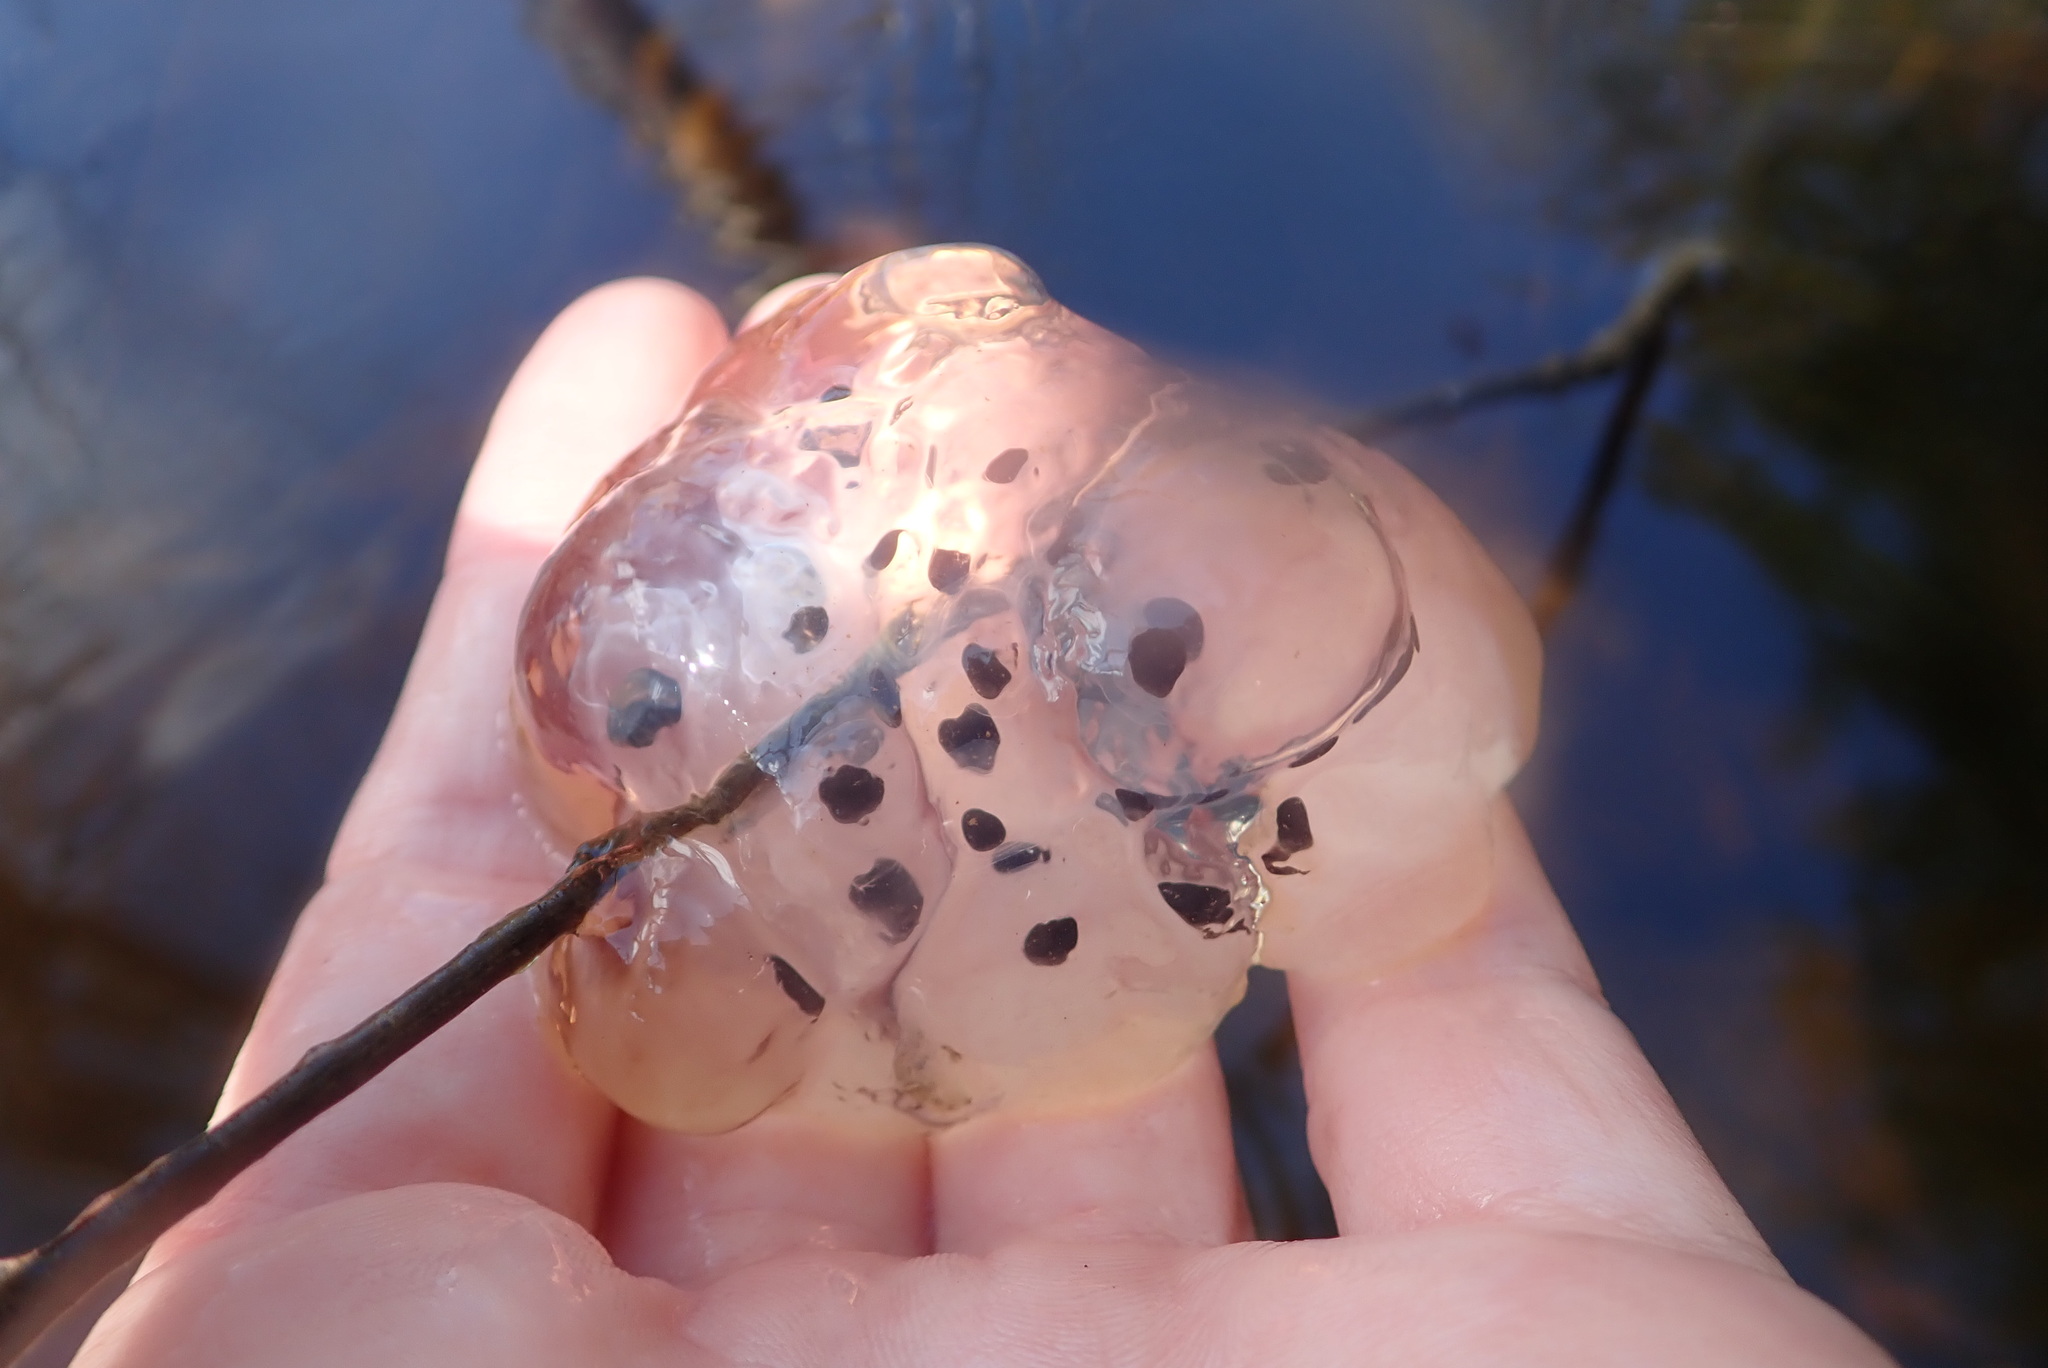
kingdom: Animalia
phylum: Chordata
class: Amphibia
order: Caudata
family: Ambystomatidae
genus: Ambystoma
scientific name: Ambystoma maculatum
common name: Spotted salamander
